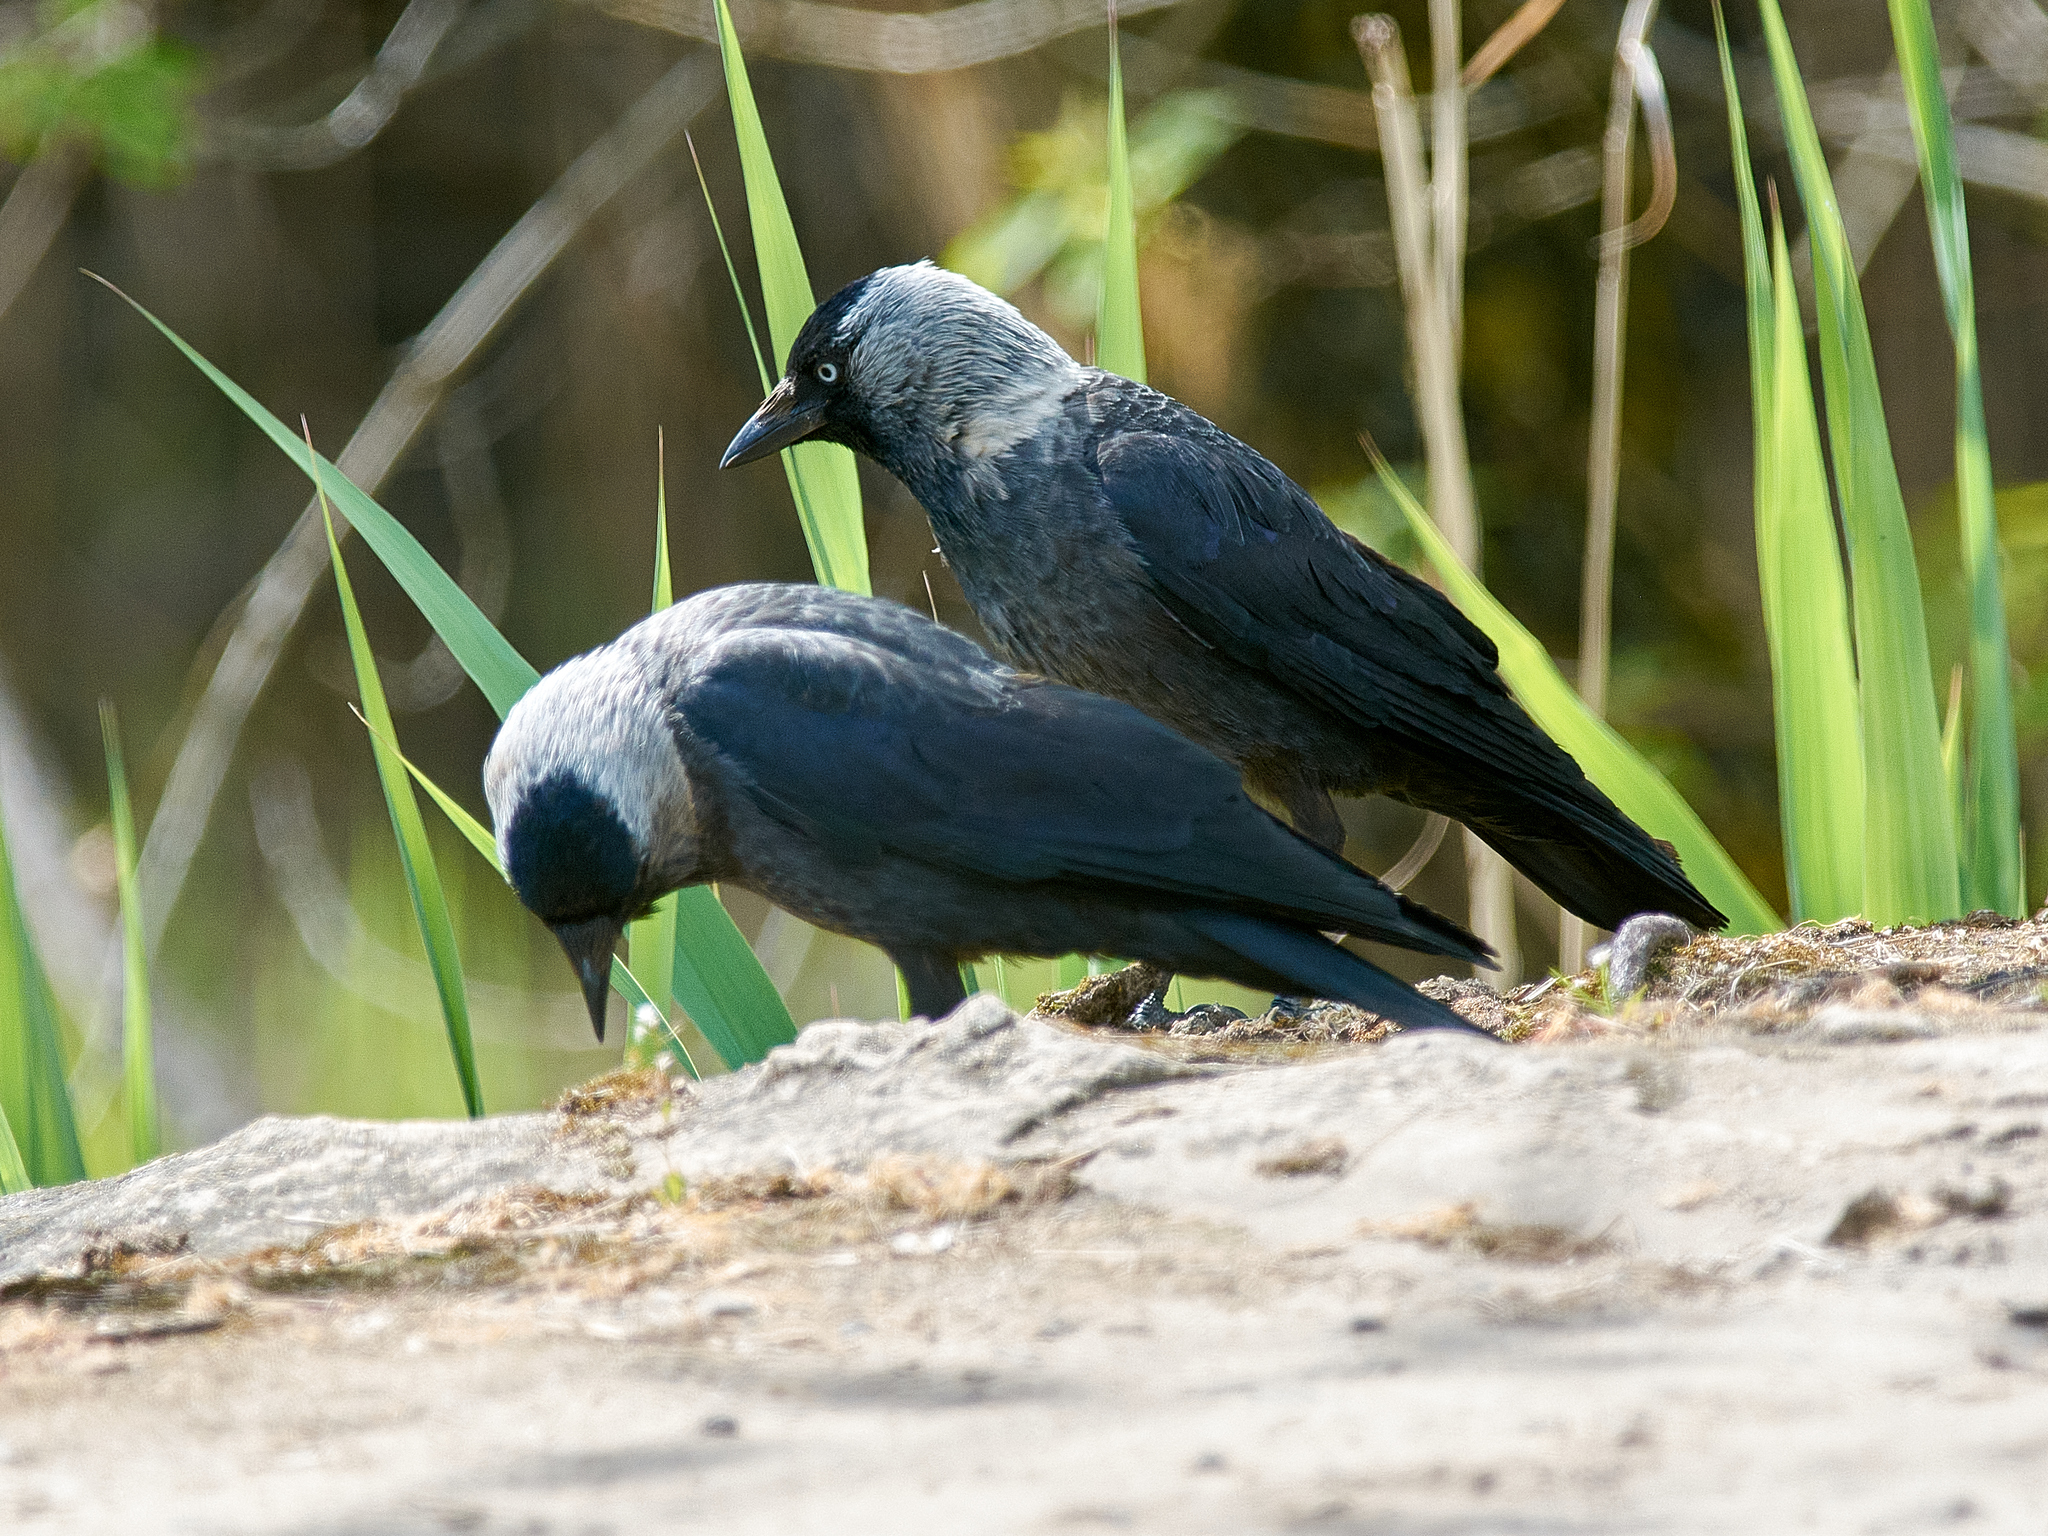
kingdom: Animalia
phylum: Chordata
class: Aves
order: Passeriformes
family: Corvidae
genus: Coloeus
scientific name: Coloeus monedula
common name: Western jackdaw
